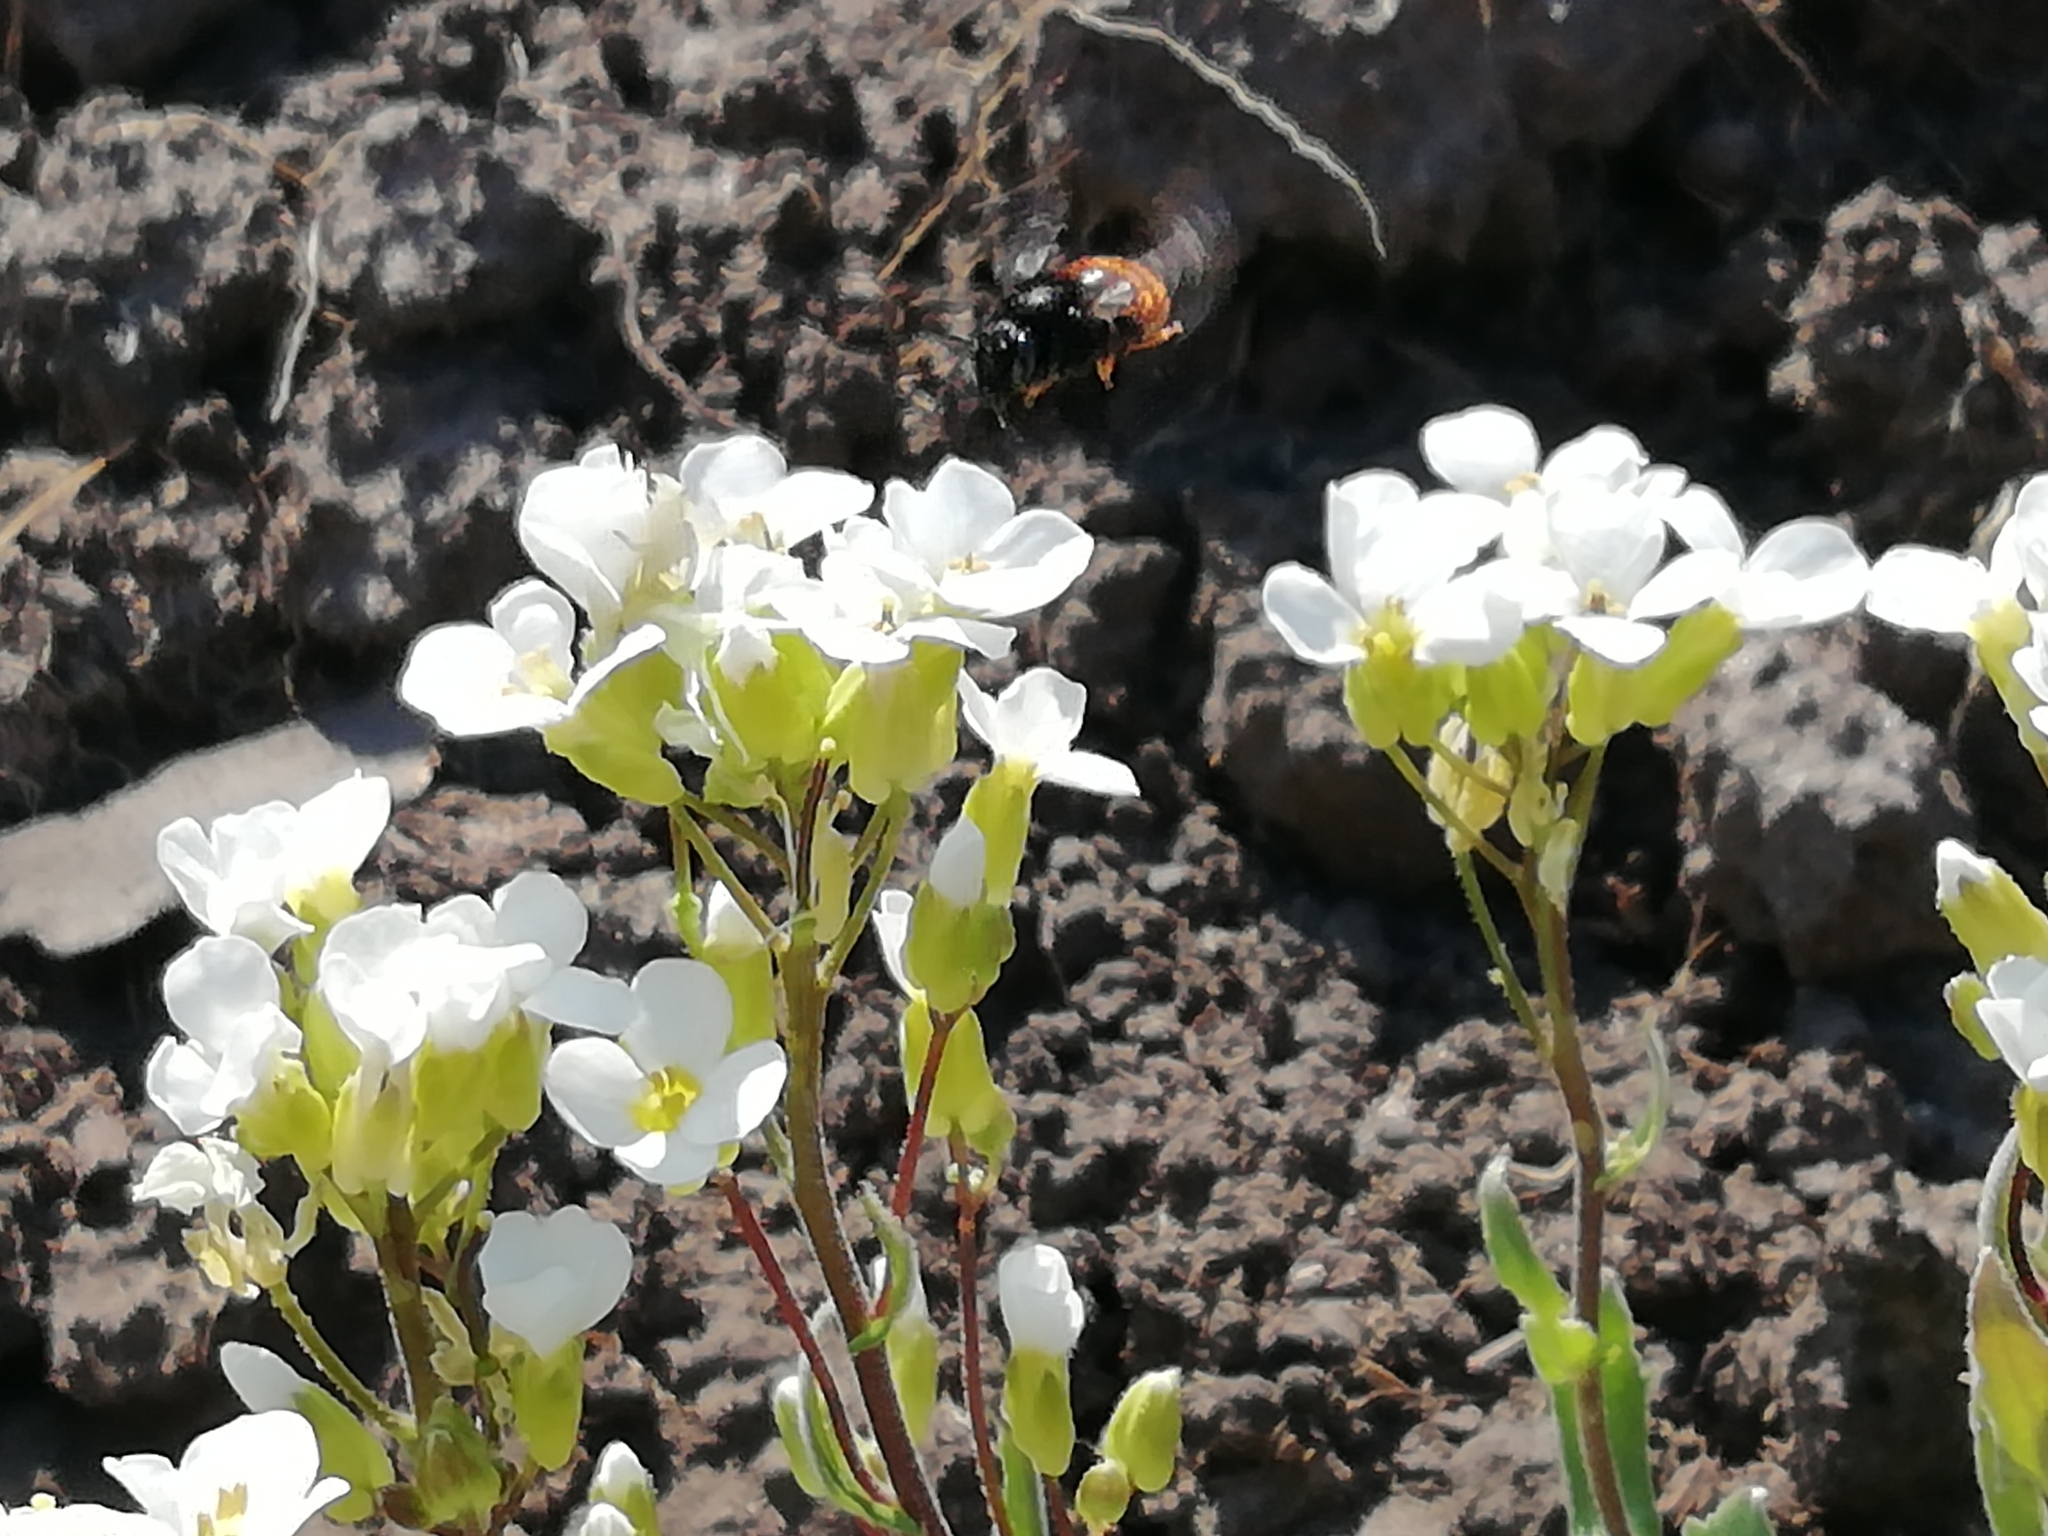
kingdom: Animalia
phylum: Arthropoda
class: Insecta
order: Hymenoptera
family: Megachilidae
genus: Osmia
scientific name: Osmia bicolor
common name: Red-tailed mason bee
